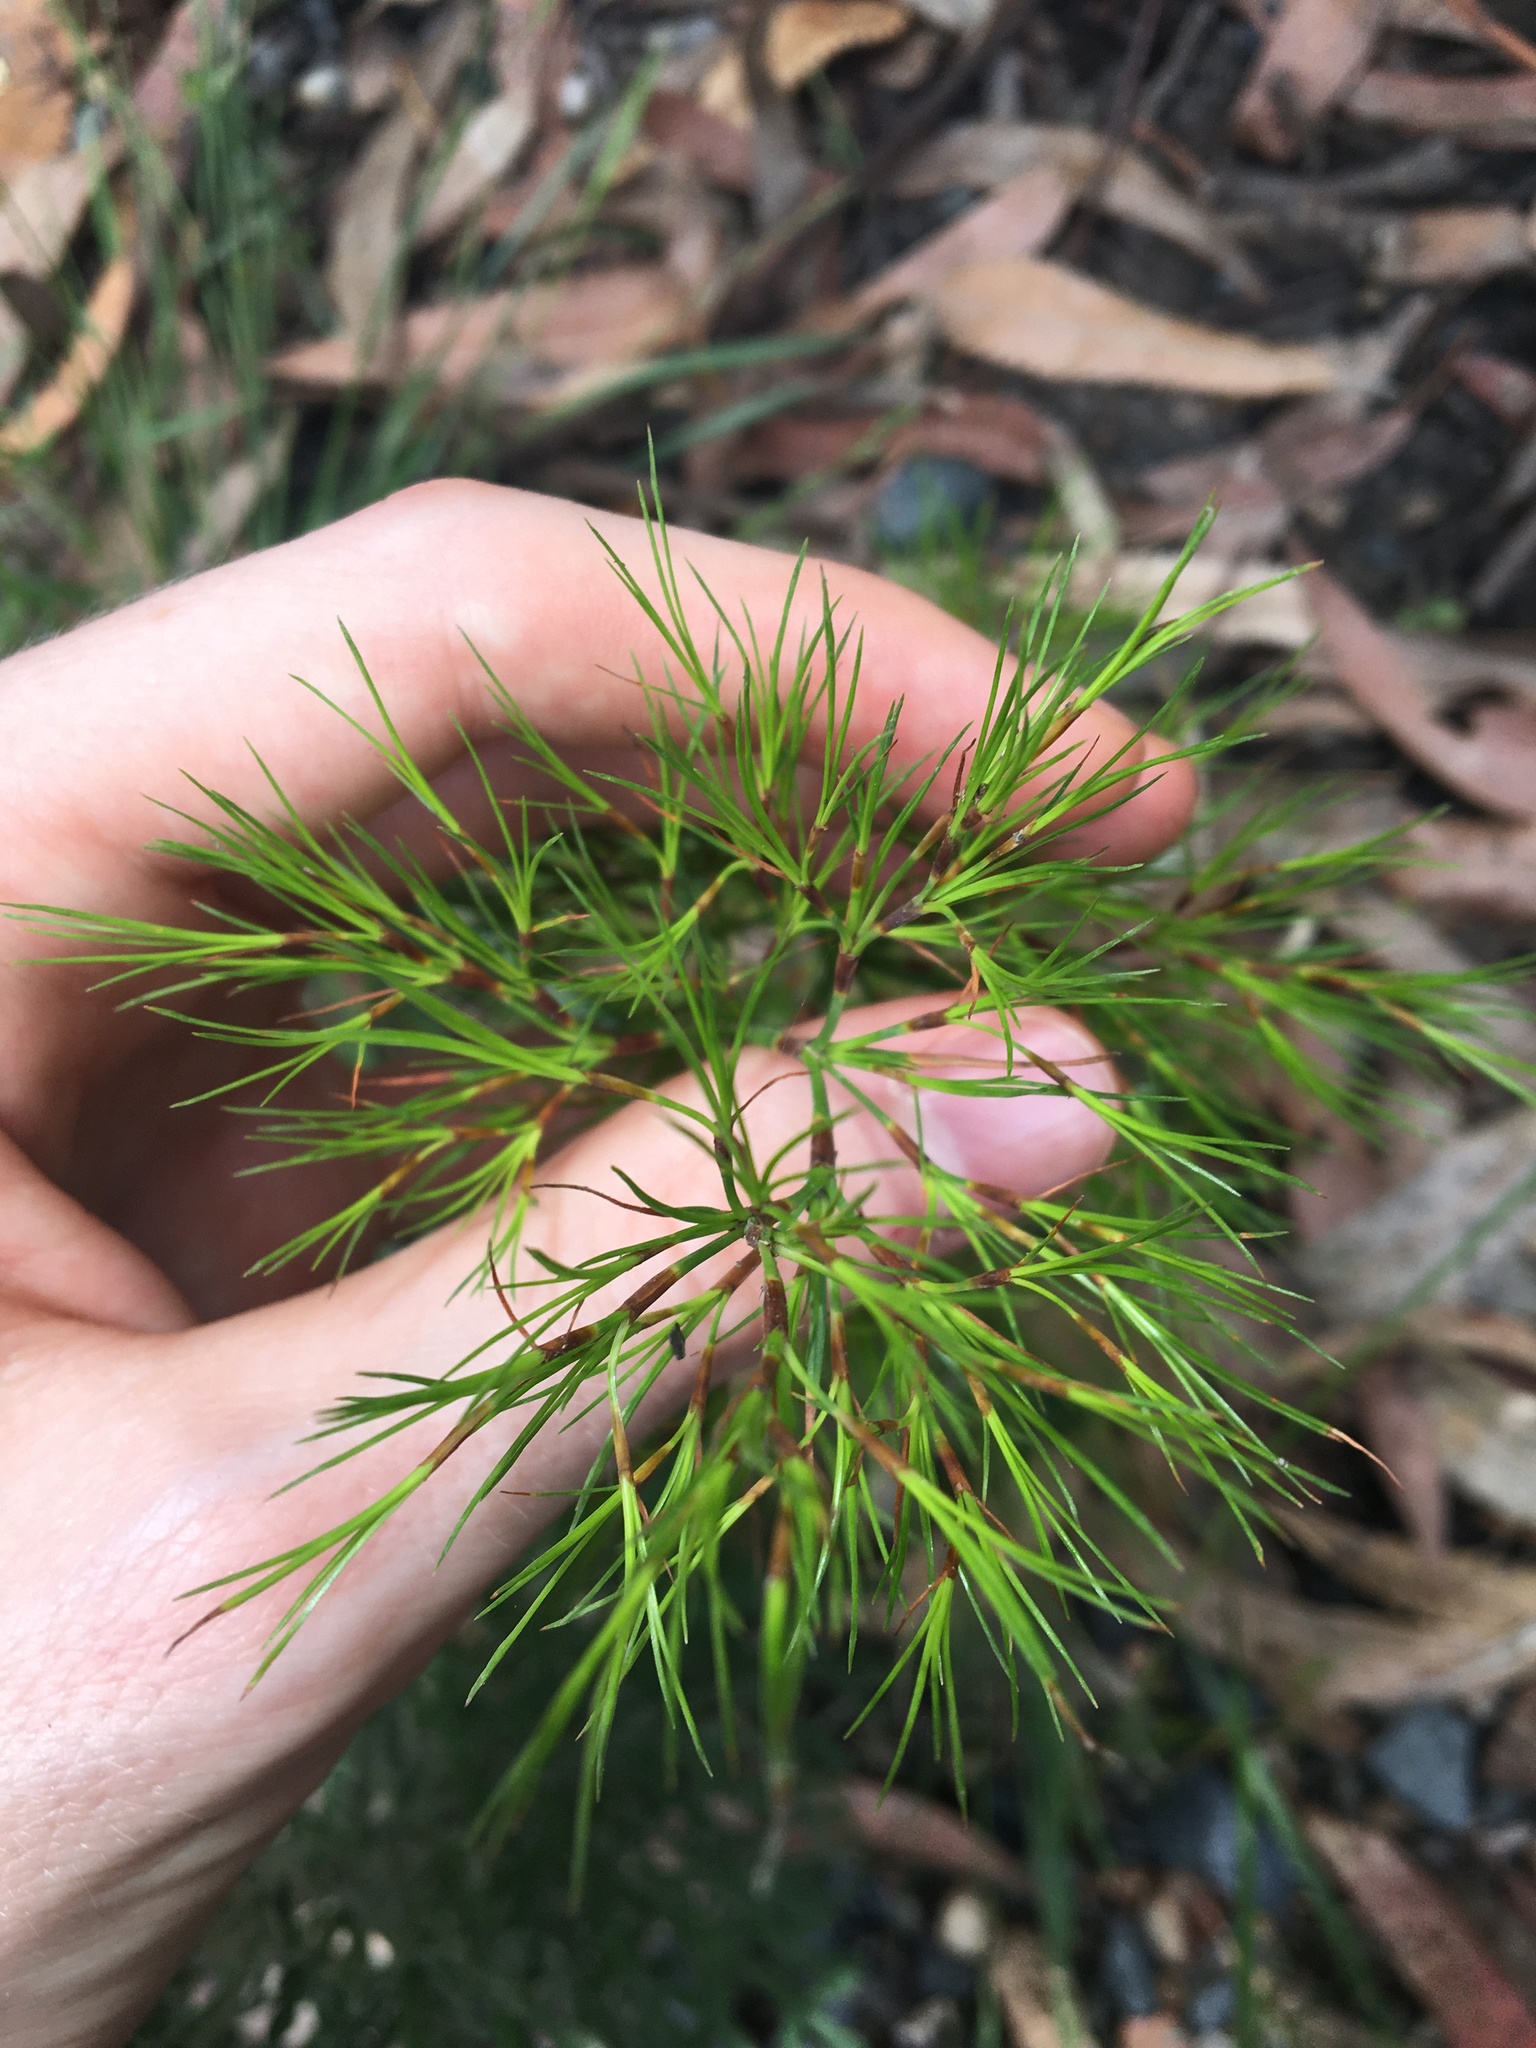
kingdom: Plantae
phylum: Tracheophyta
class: Liliopsida
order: Poales
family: Cyperaceae
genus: Caustis
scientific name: Caustis blakei
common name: Foxtail-fern
